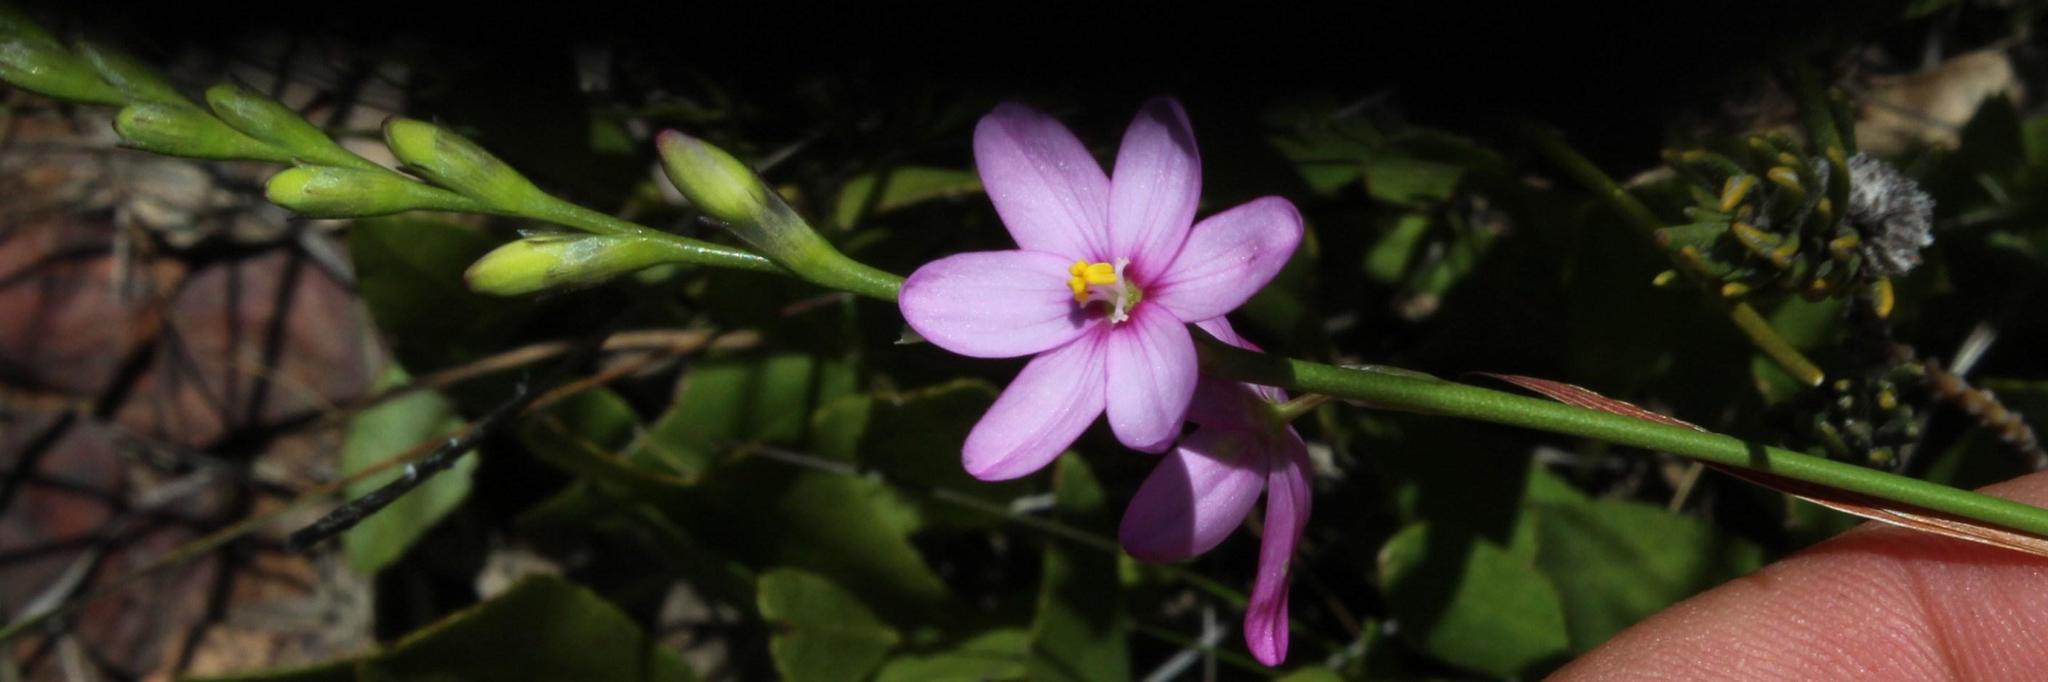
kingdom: Plantae
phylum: Tracheophyta
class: Liliopsida
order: Asparagales
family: Iridaceae
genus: Ixia
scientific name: Ixia micrandra
